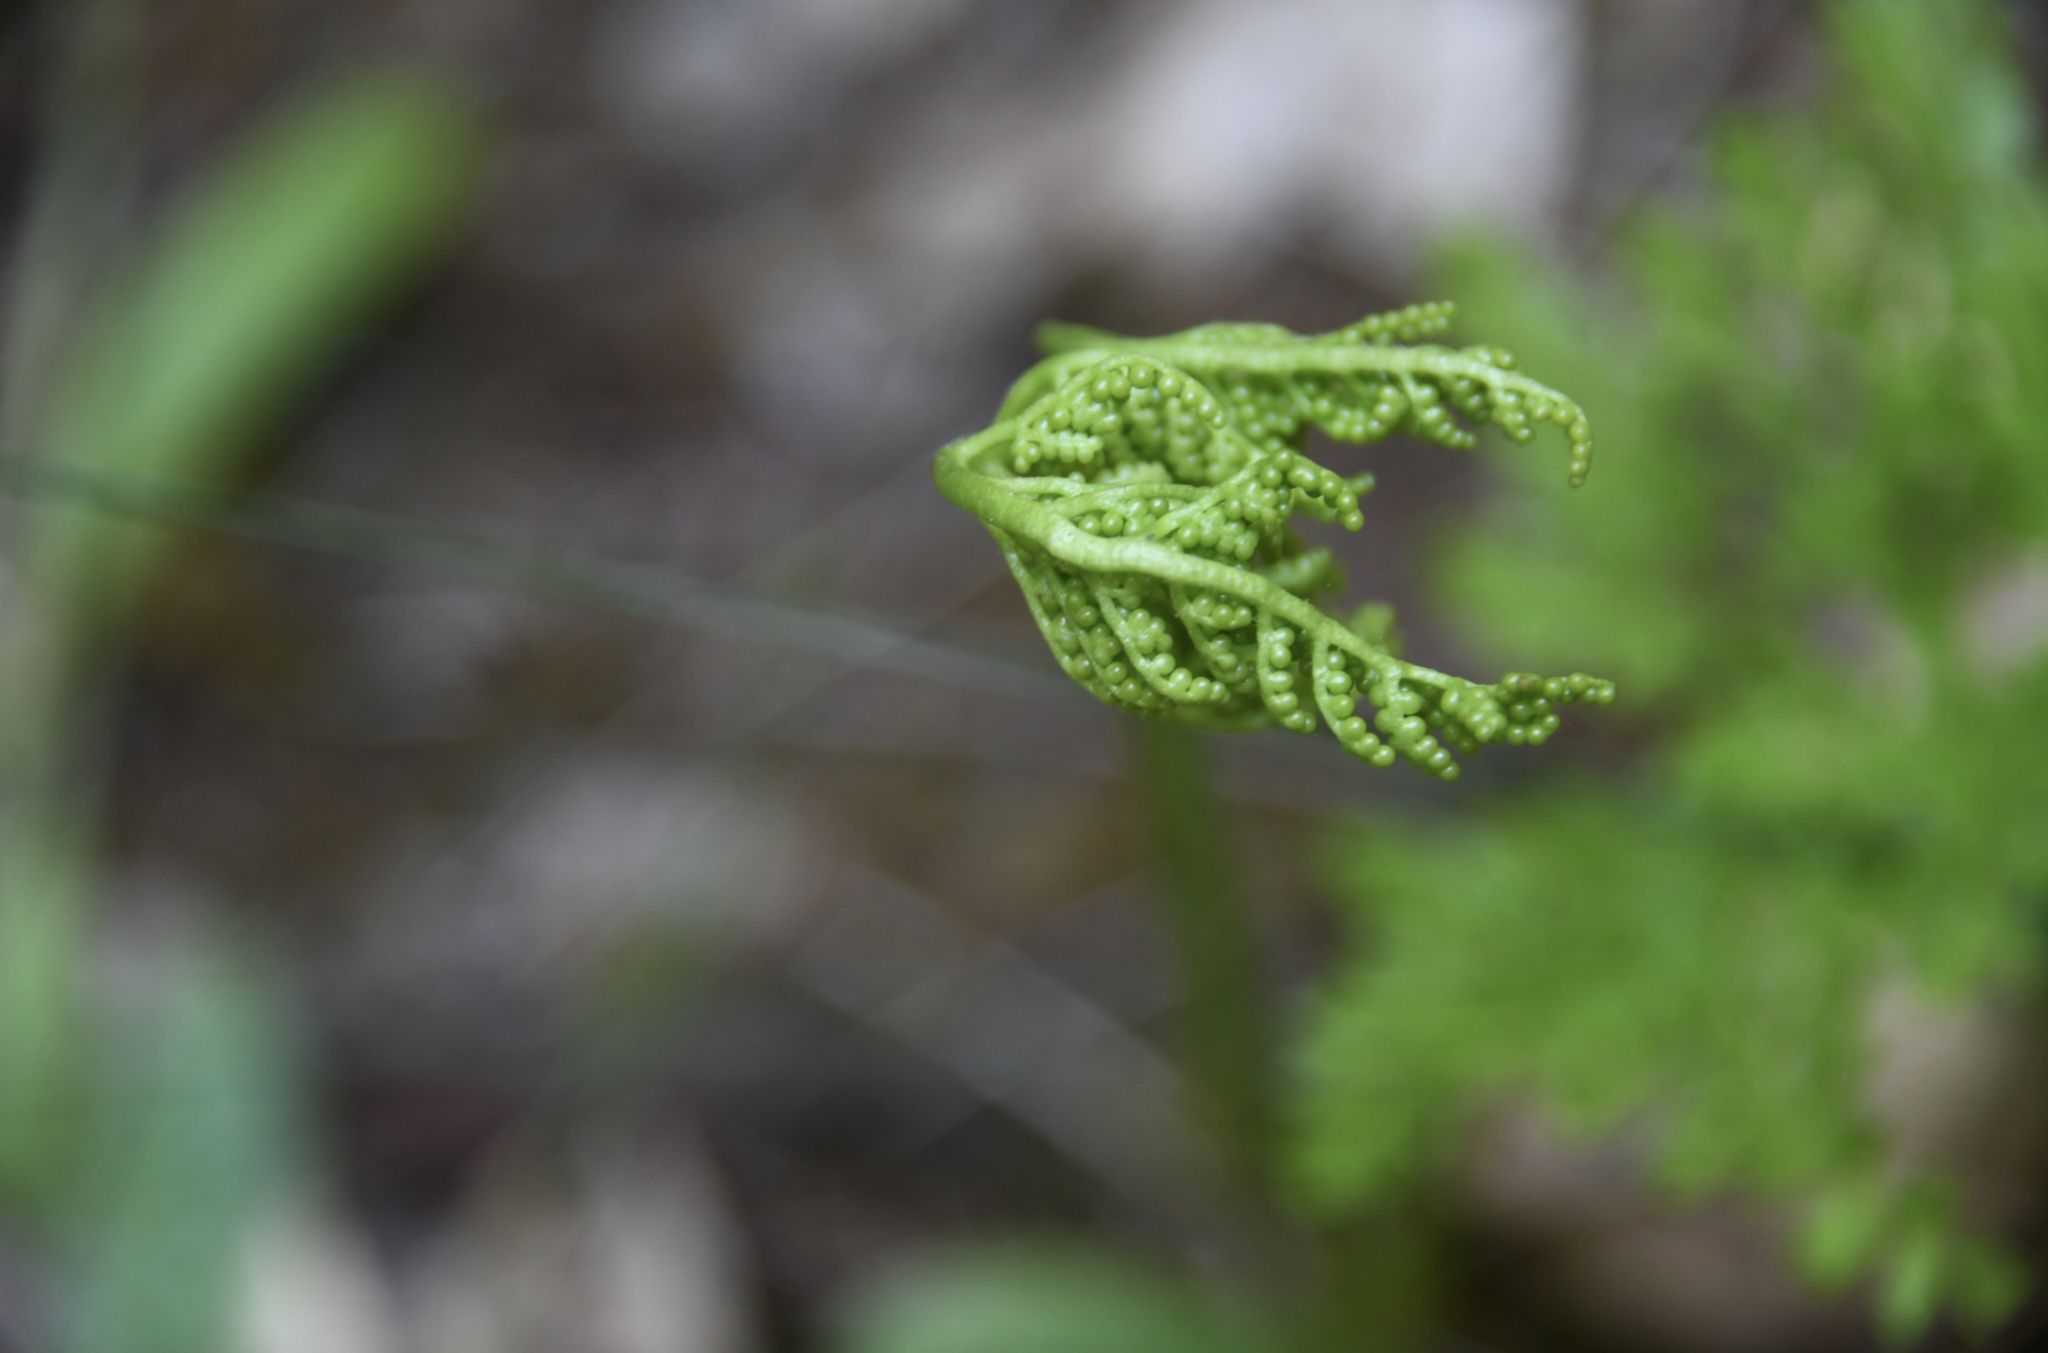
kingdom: Plantae
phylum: Tracheophyta
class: Polypodiopsida
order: Ophioglossales
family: Ophioglossaceae
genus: Sceptridium
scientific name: Sceptridium multifidum
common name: Leathery grape fern
